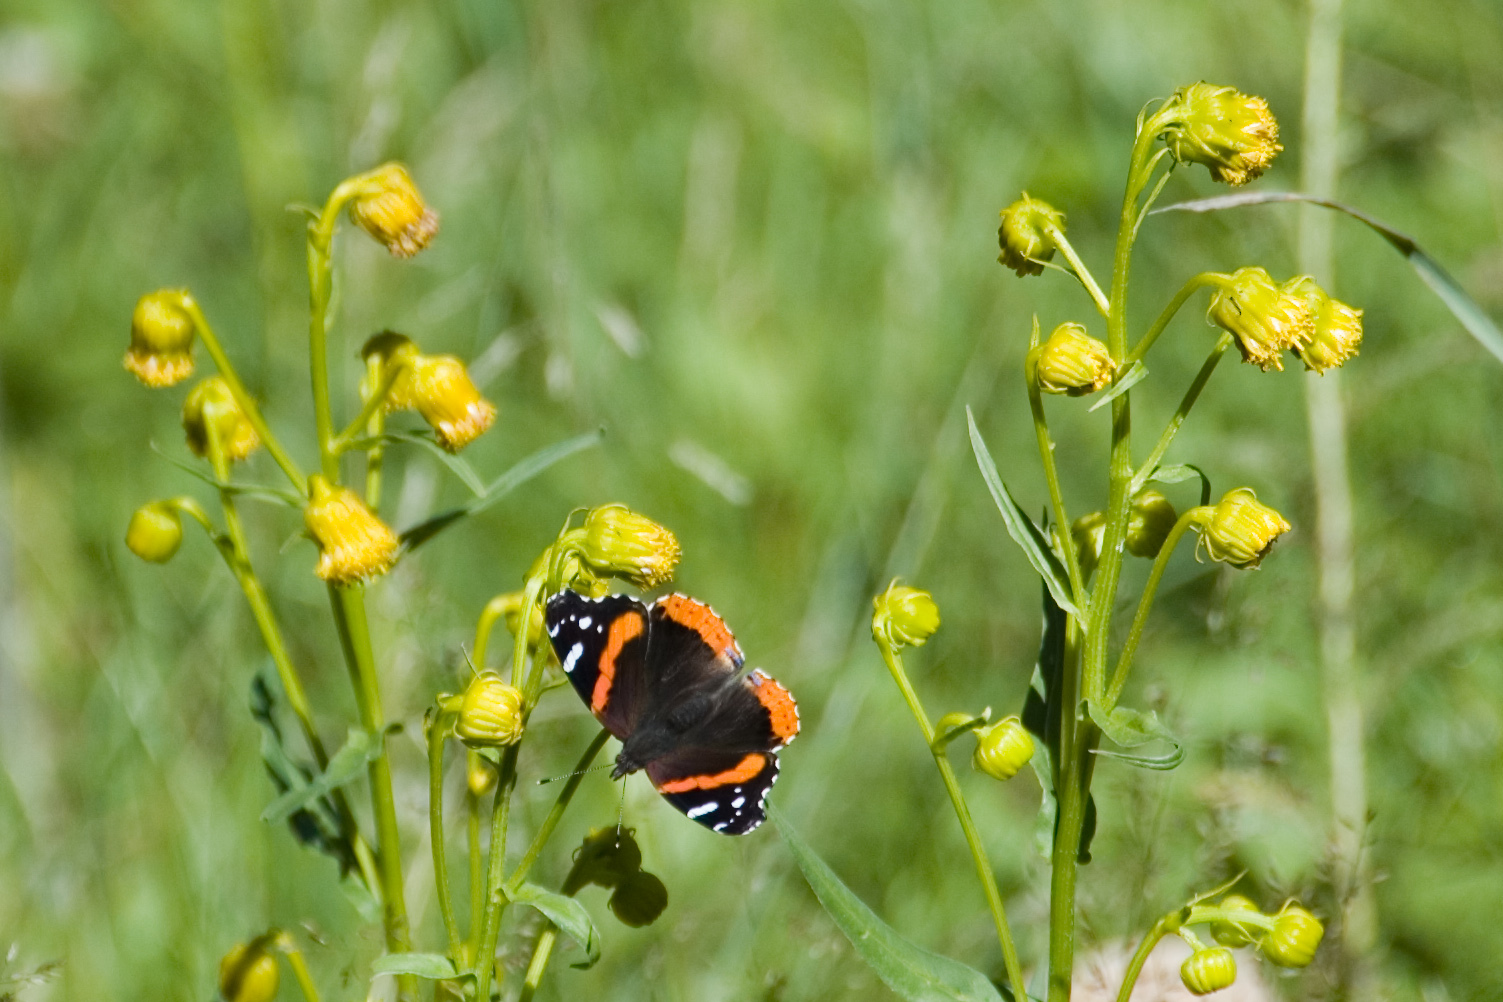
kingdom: Animalia
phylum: Arthropoda
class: Insecta
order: Lepidoptera
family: Nymphalidae
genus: Vanessa
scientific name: Vanessa atalanta
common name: Red admiral
